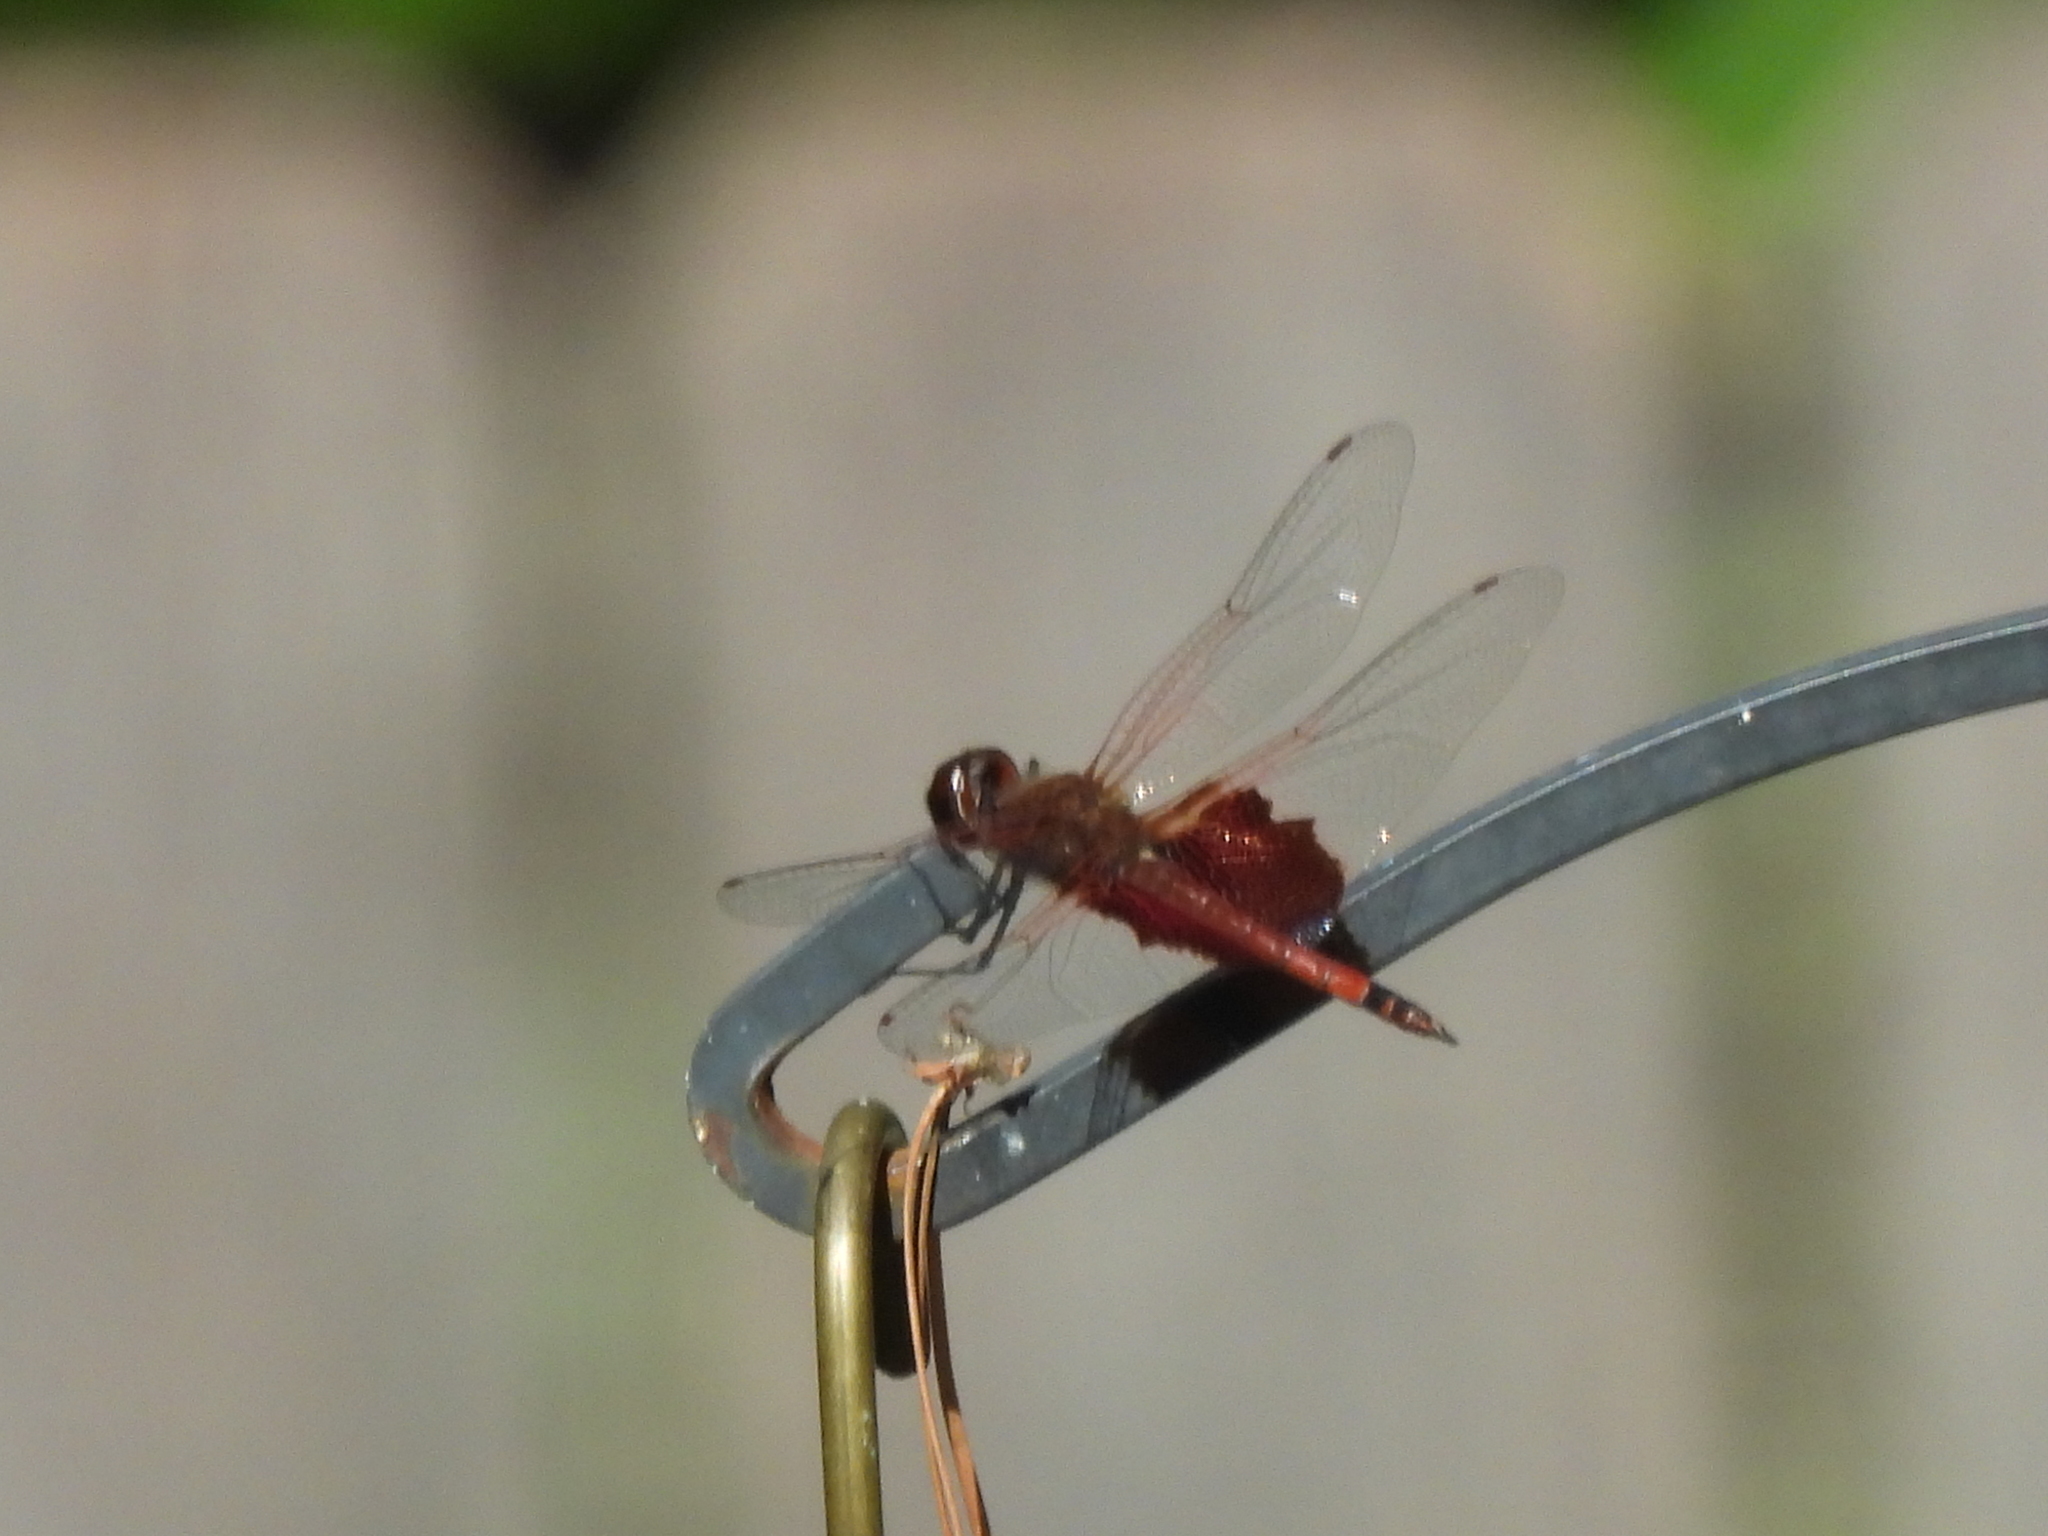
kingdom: Animalia
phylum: Arthropoda
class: Insecta
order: Odonata
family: Libellulidae
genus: Tramea
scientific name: Tramea carolina
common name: Carolina saddlebags
